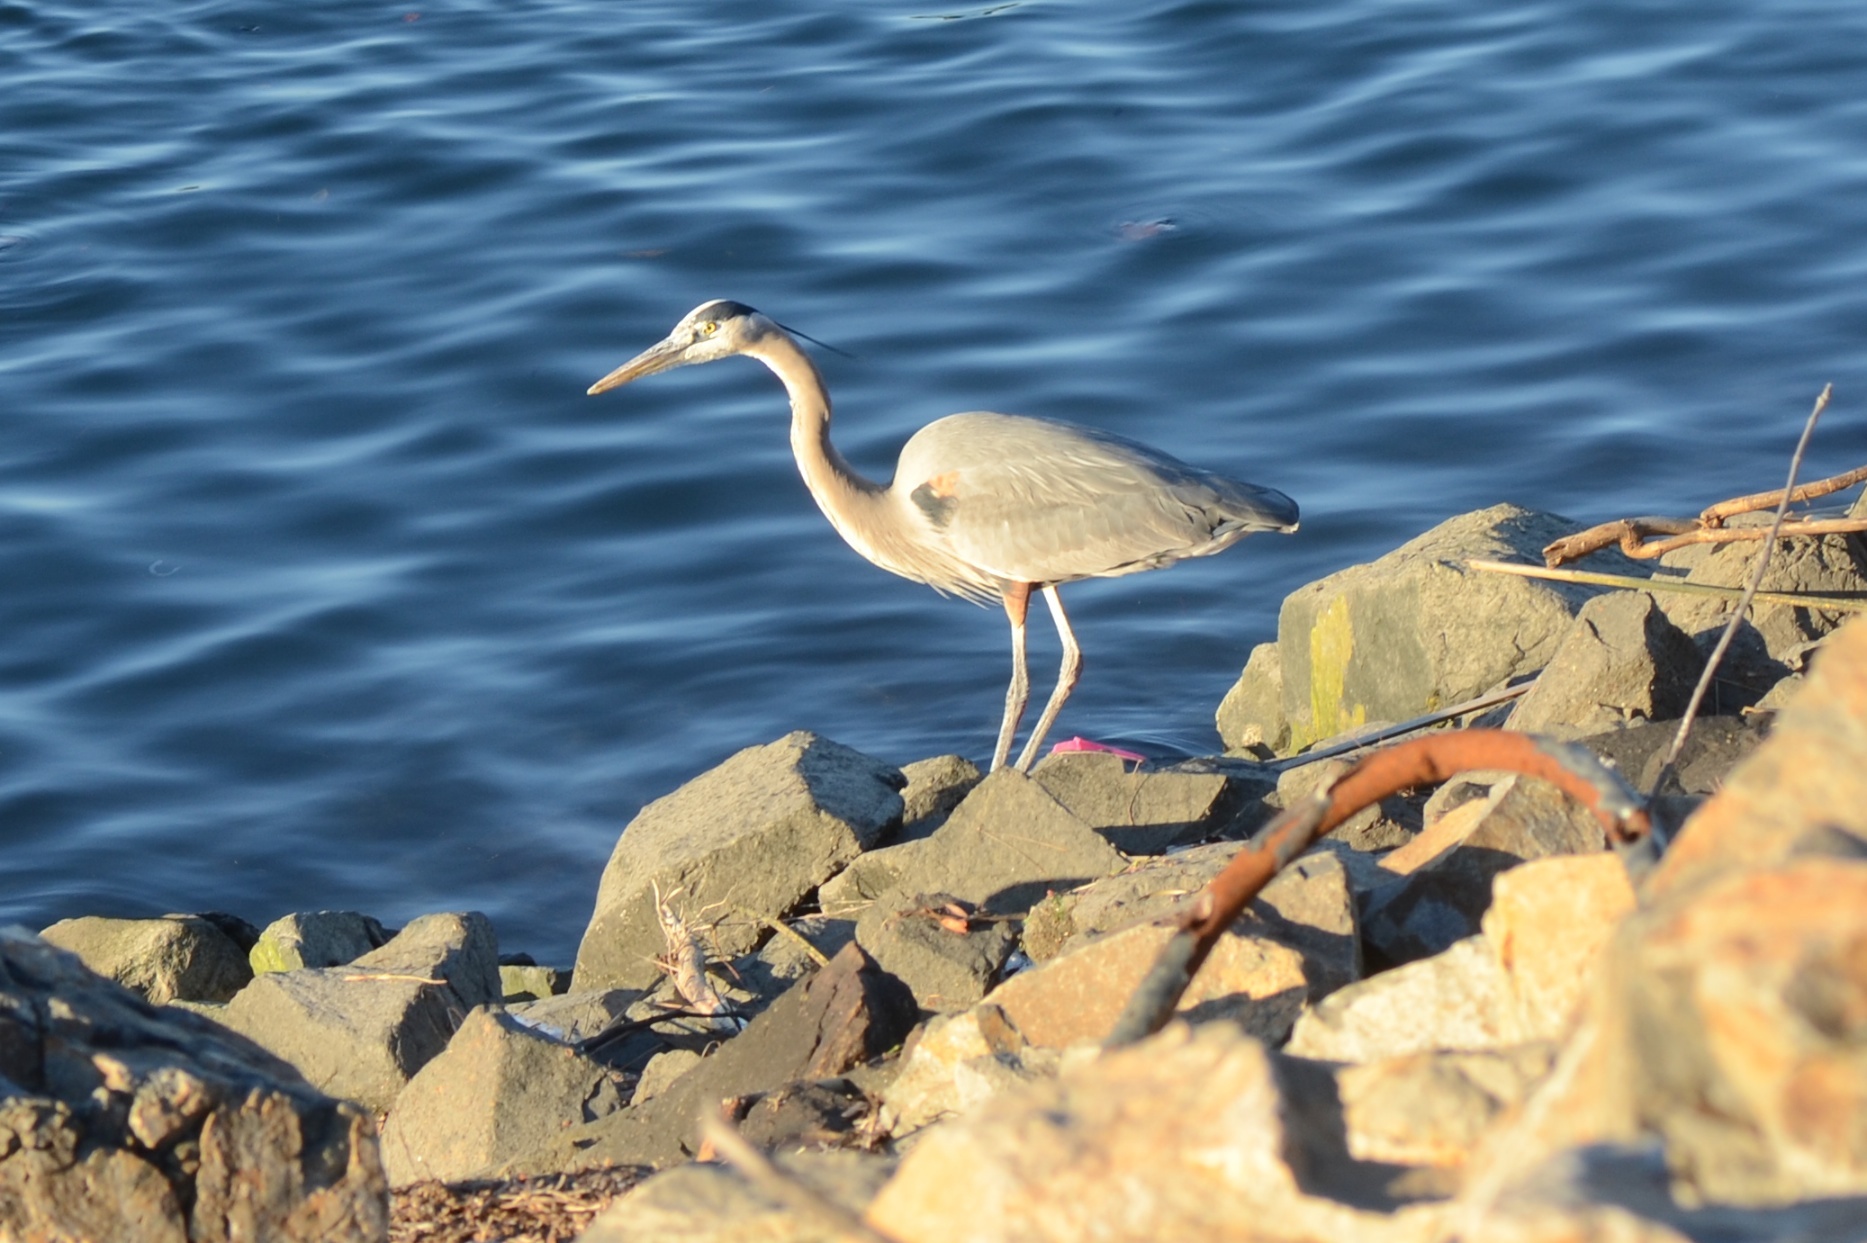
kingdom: Animalia
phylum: Chordata
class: Aves
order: Pelecaniformes
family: Ardeidae
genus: Ardea
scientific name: Ardea herodias
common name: Great blue heron
